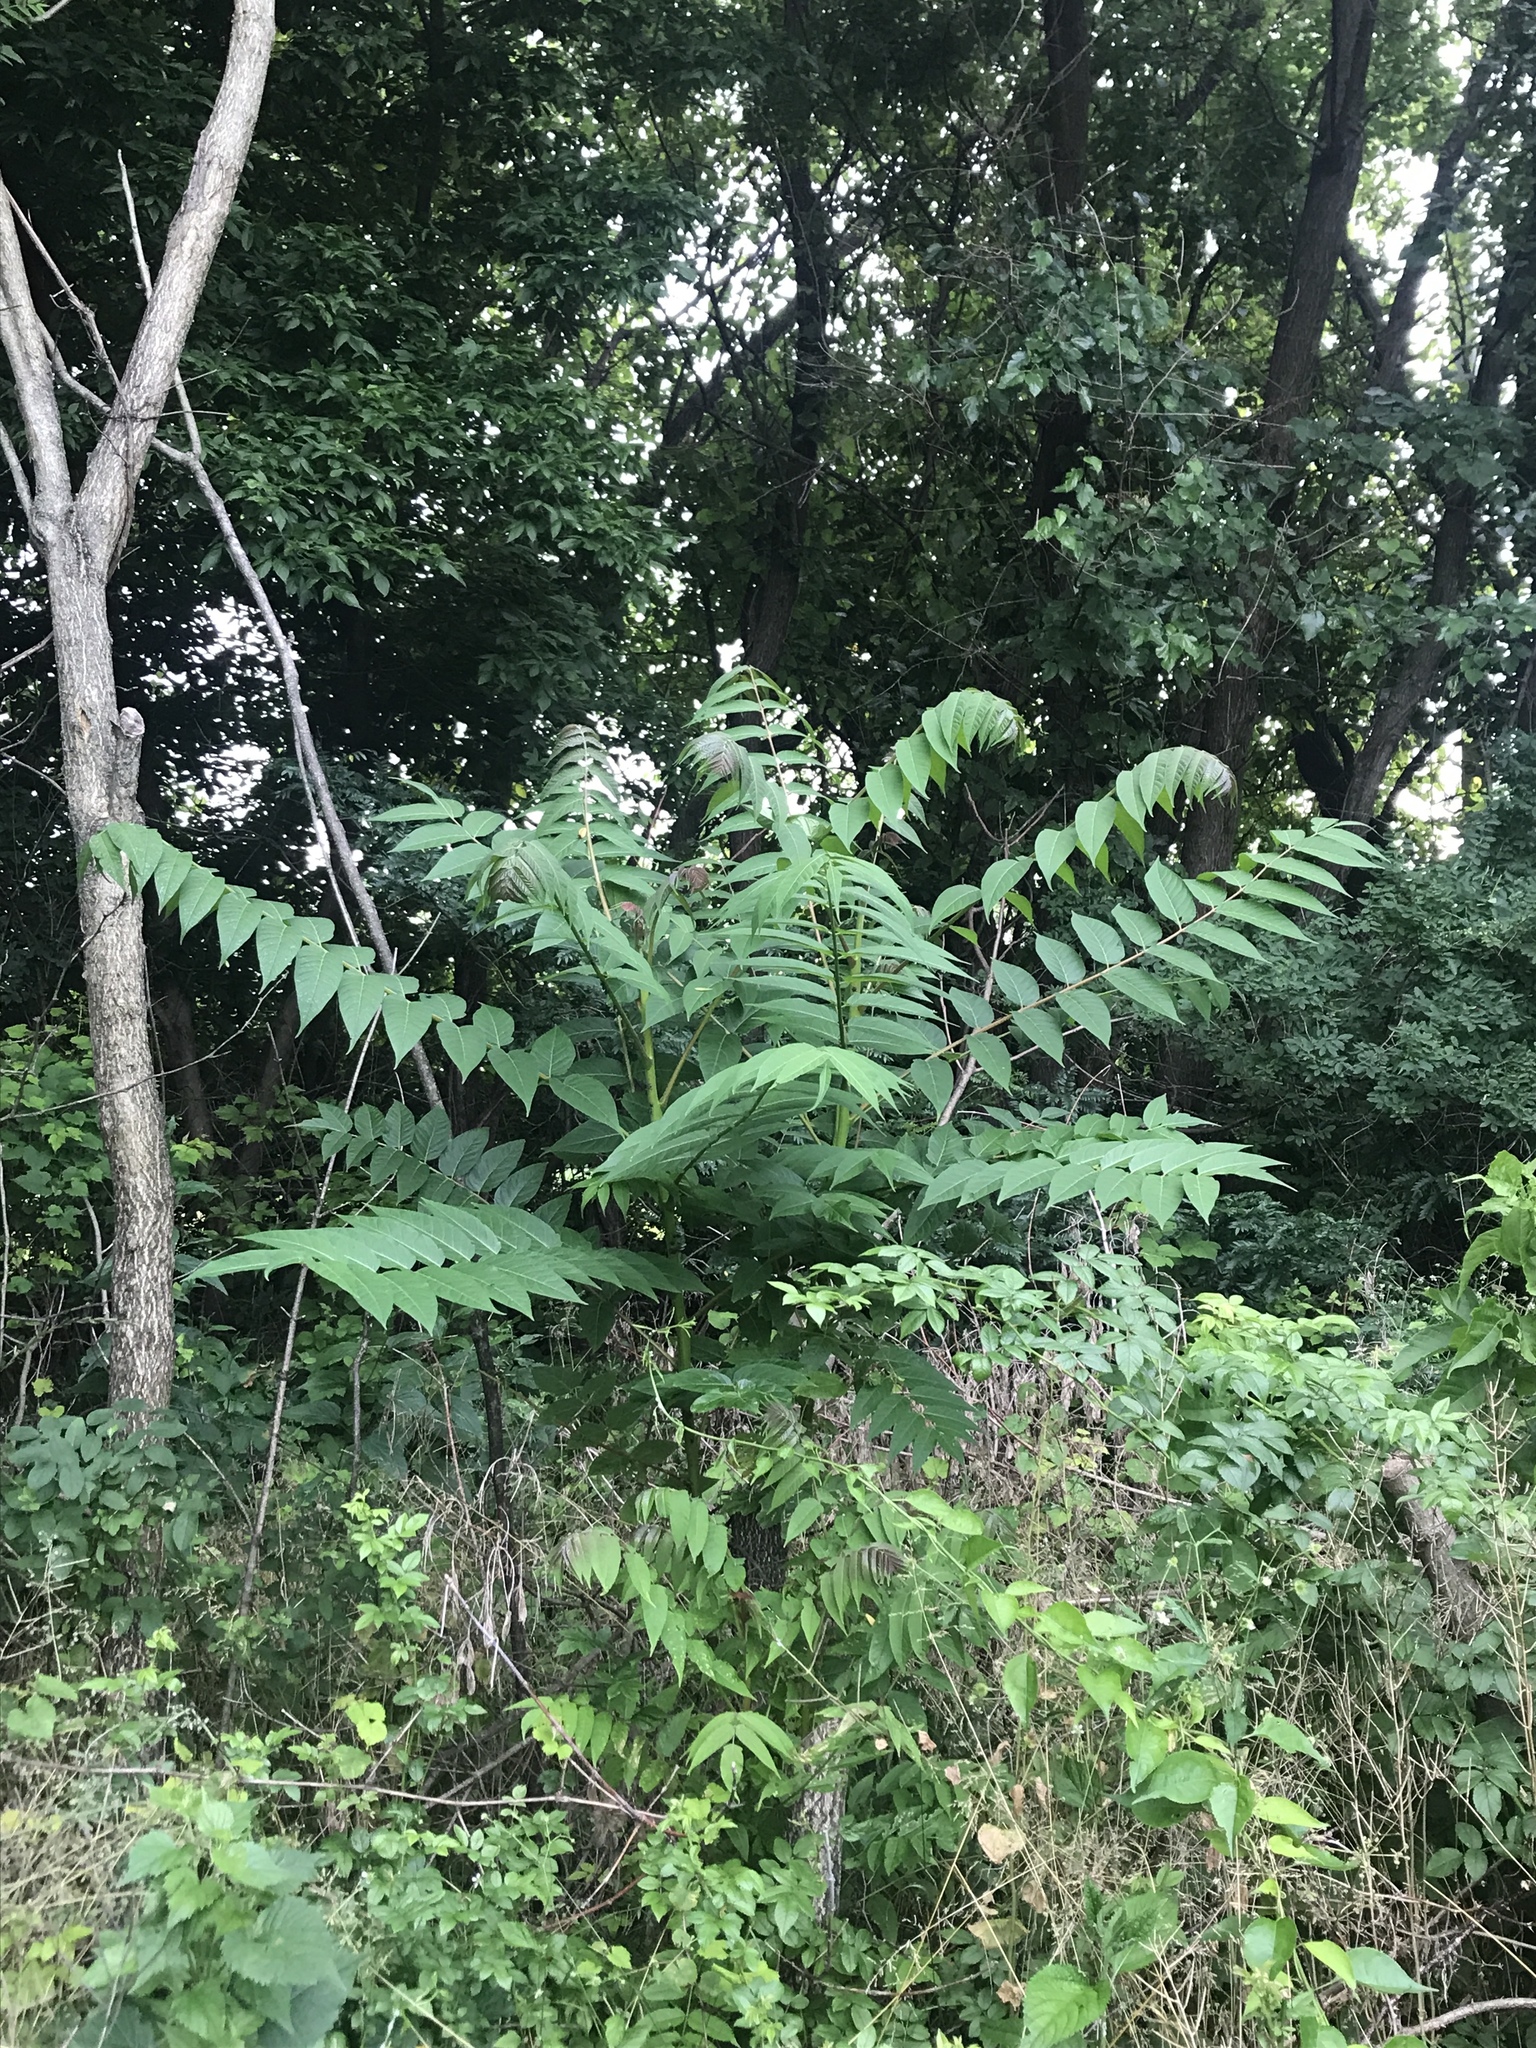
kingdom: Plantae
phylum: Tracheophyta
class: Magnoliopsida
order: Sapindales
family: Simaroubaceae
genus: Ailanthus
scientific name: Ailanthus altissima
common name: Tree-of-heaven
